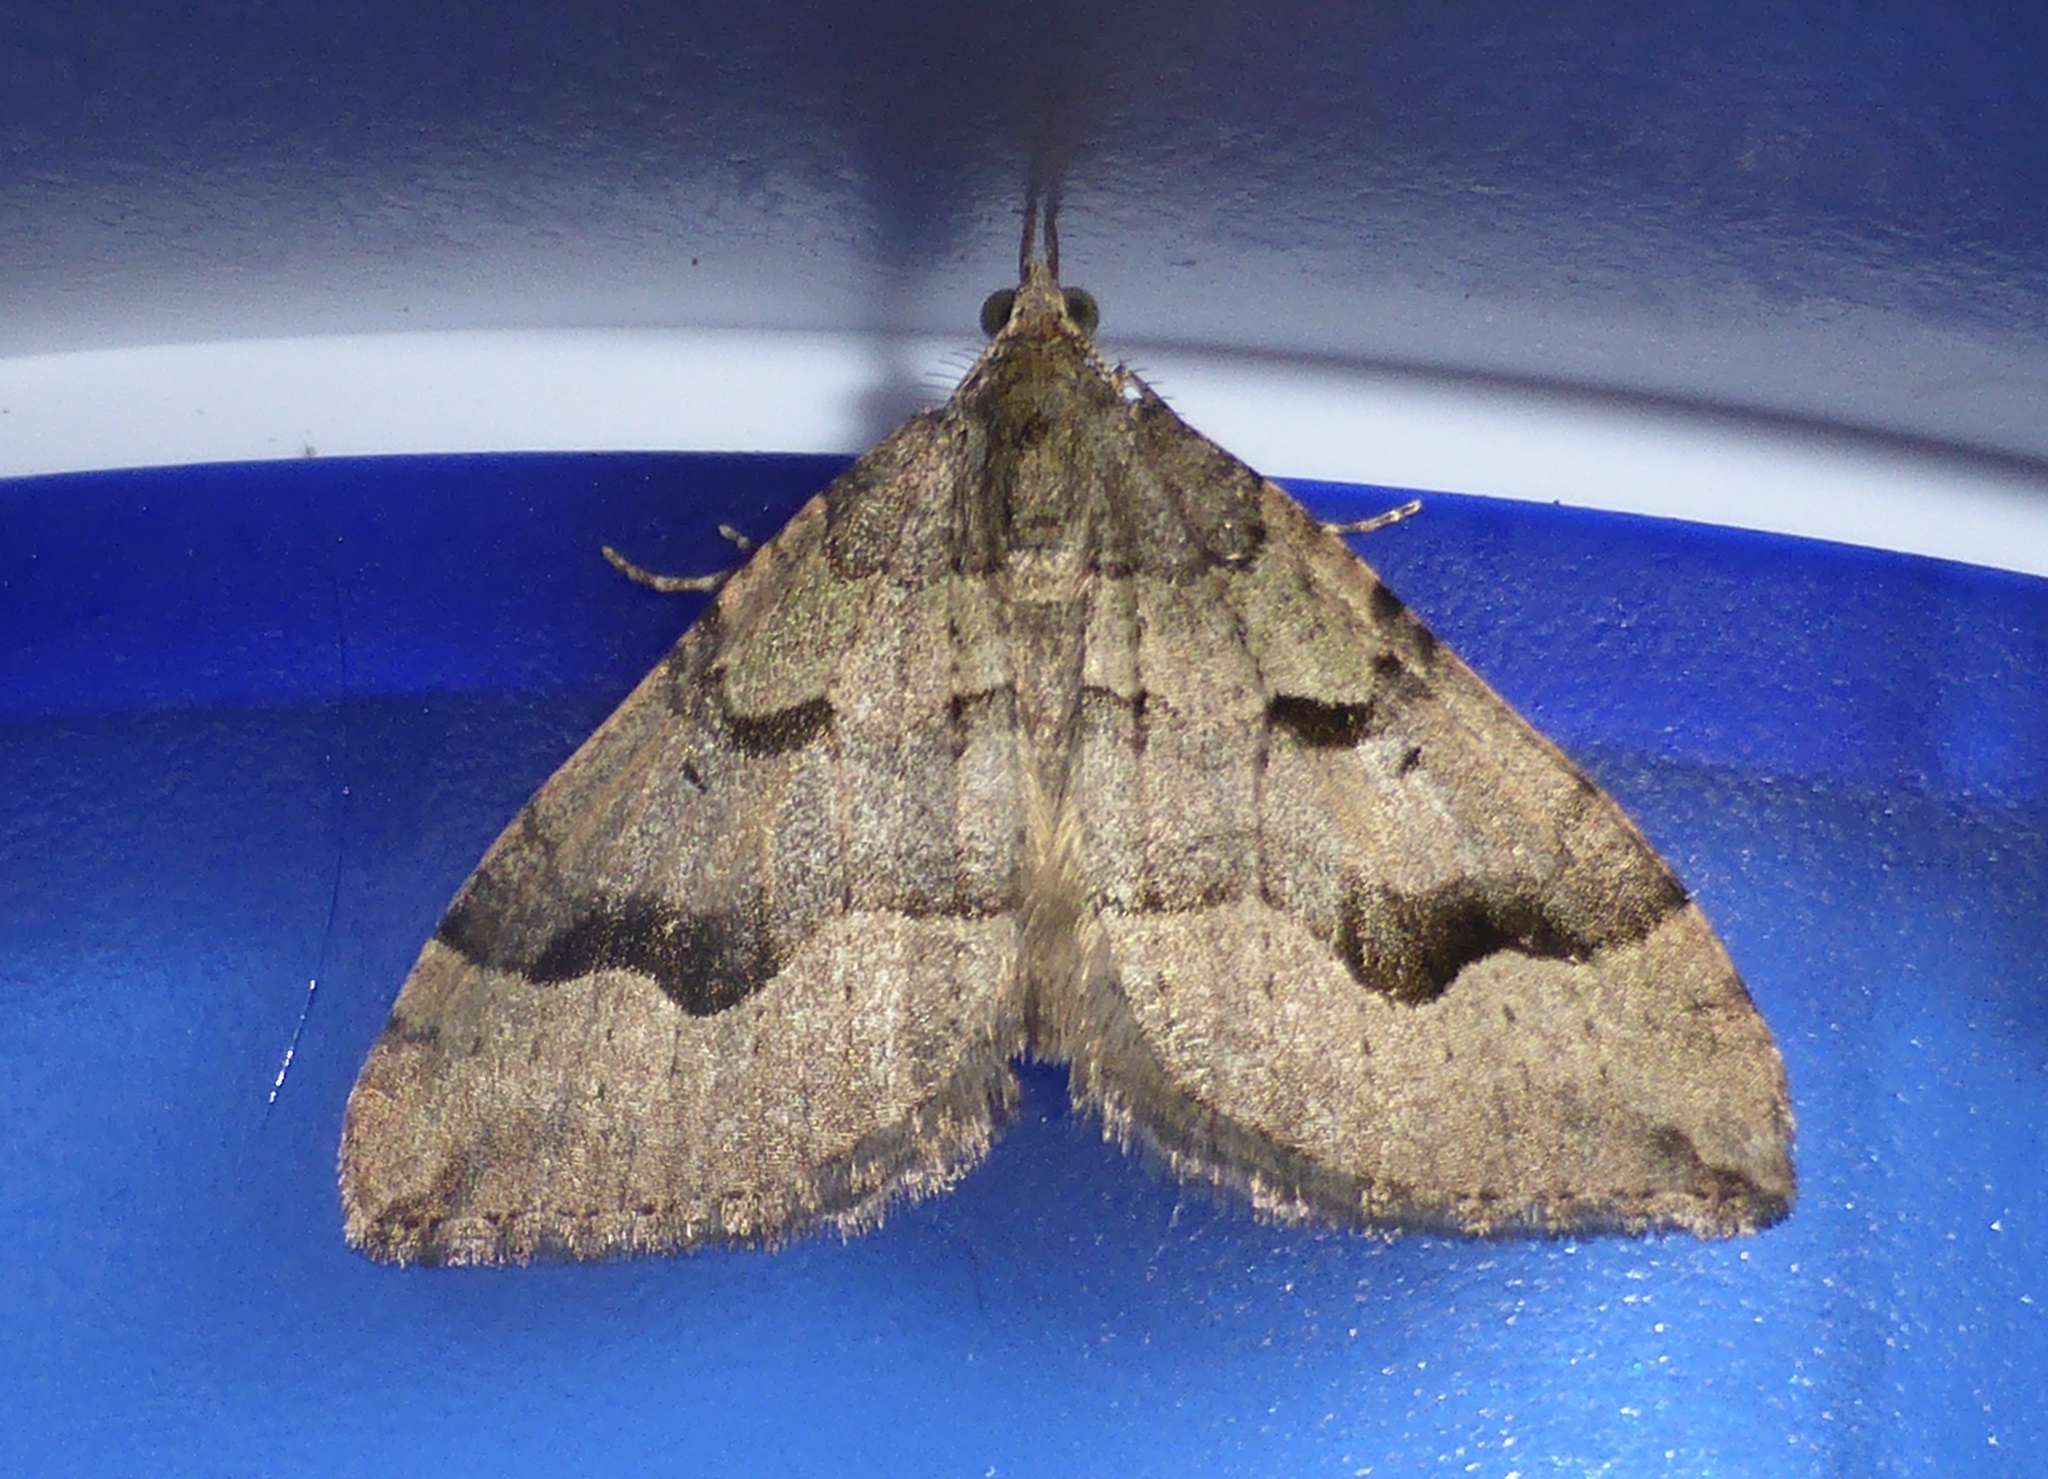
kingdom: Animalia
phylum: Arthropoda
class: Insecta
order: Lepidoptera
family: Geometridae
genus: Epyaxa
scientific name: Epyaxa rosearia
